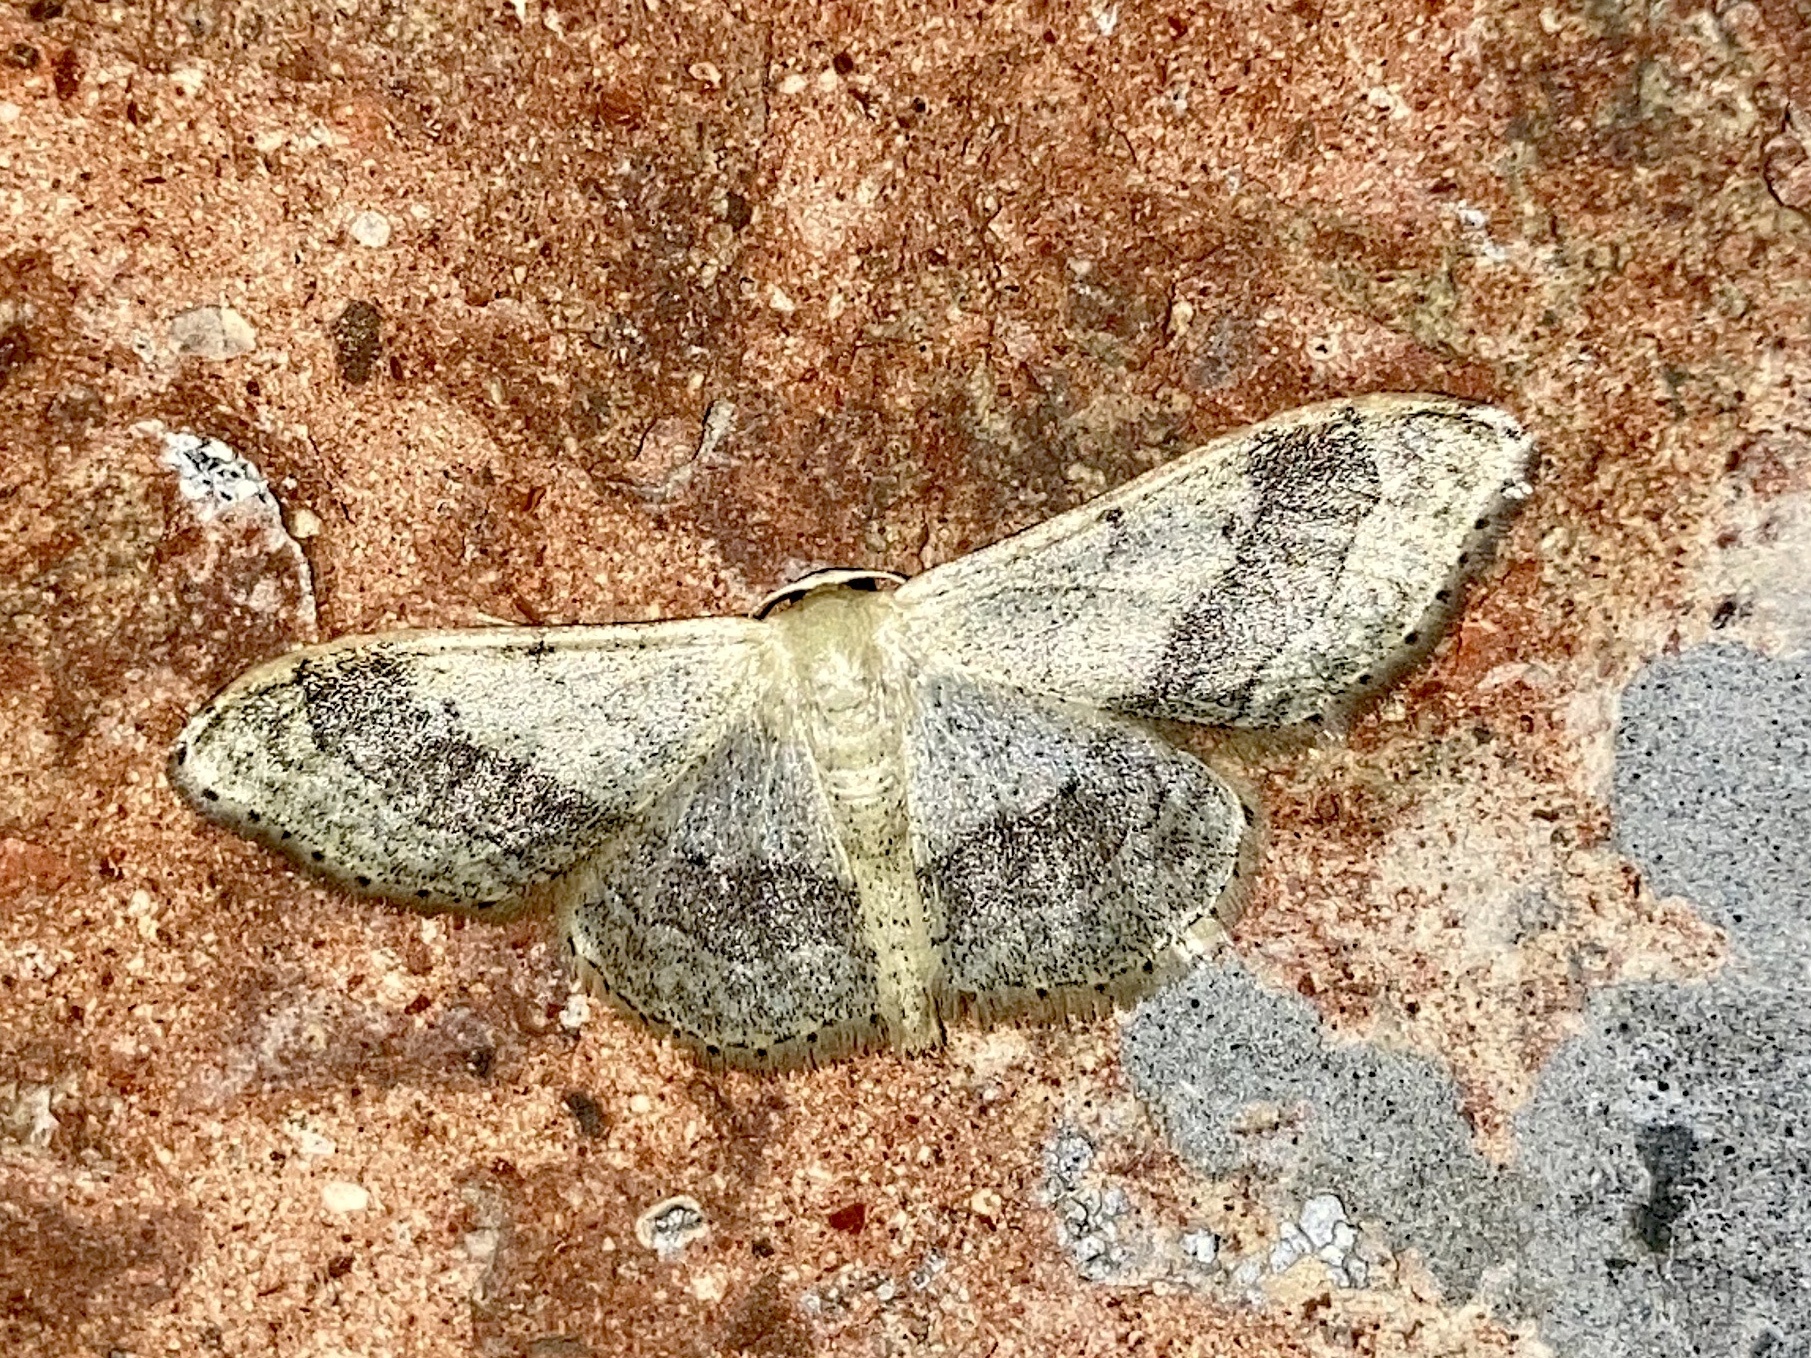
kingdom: Animalia
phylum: Arthropoda
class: Insecta
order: Lepidoptera
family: Geometridae
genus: Idaea
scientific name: Idaea aversata
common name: Riband wave
